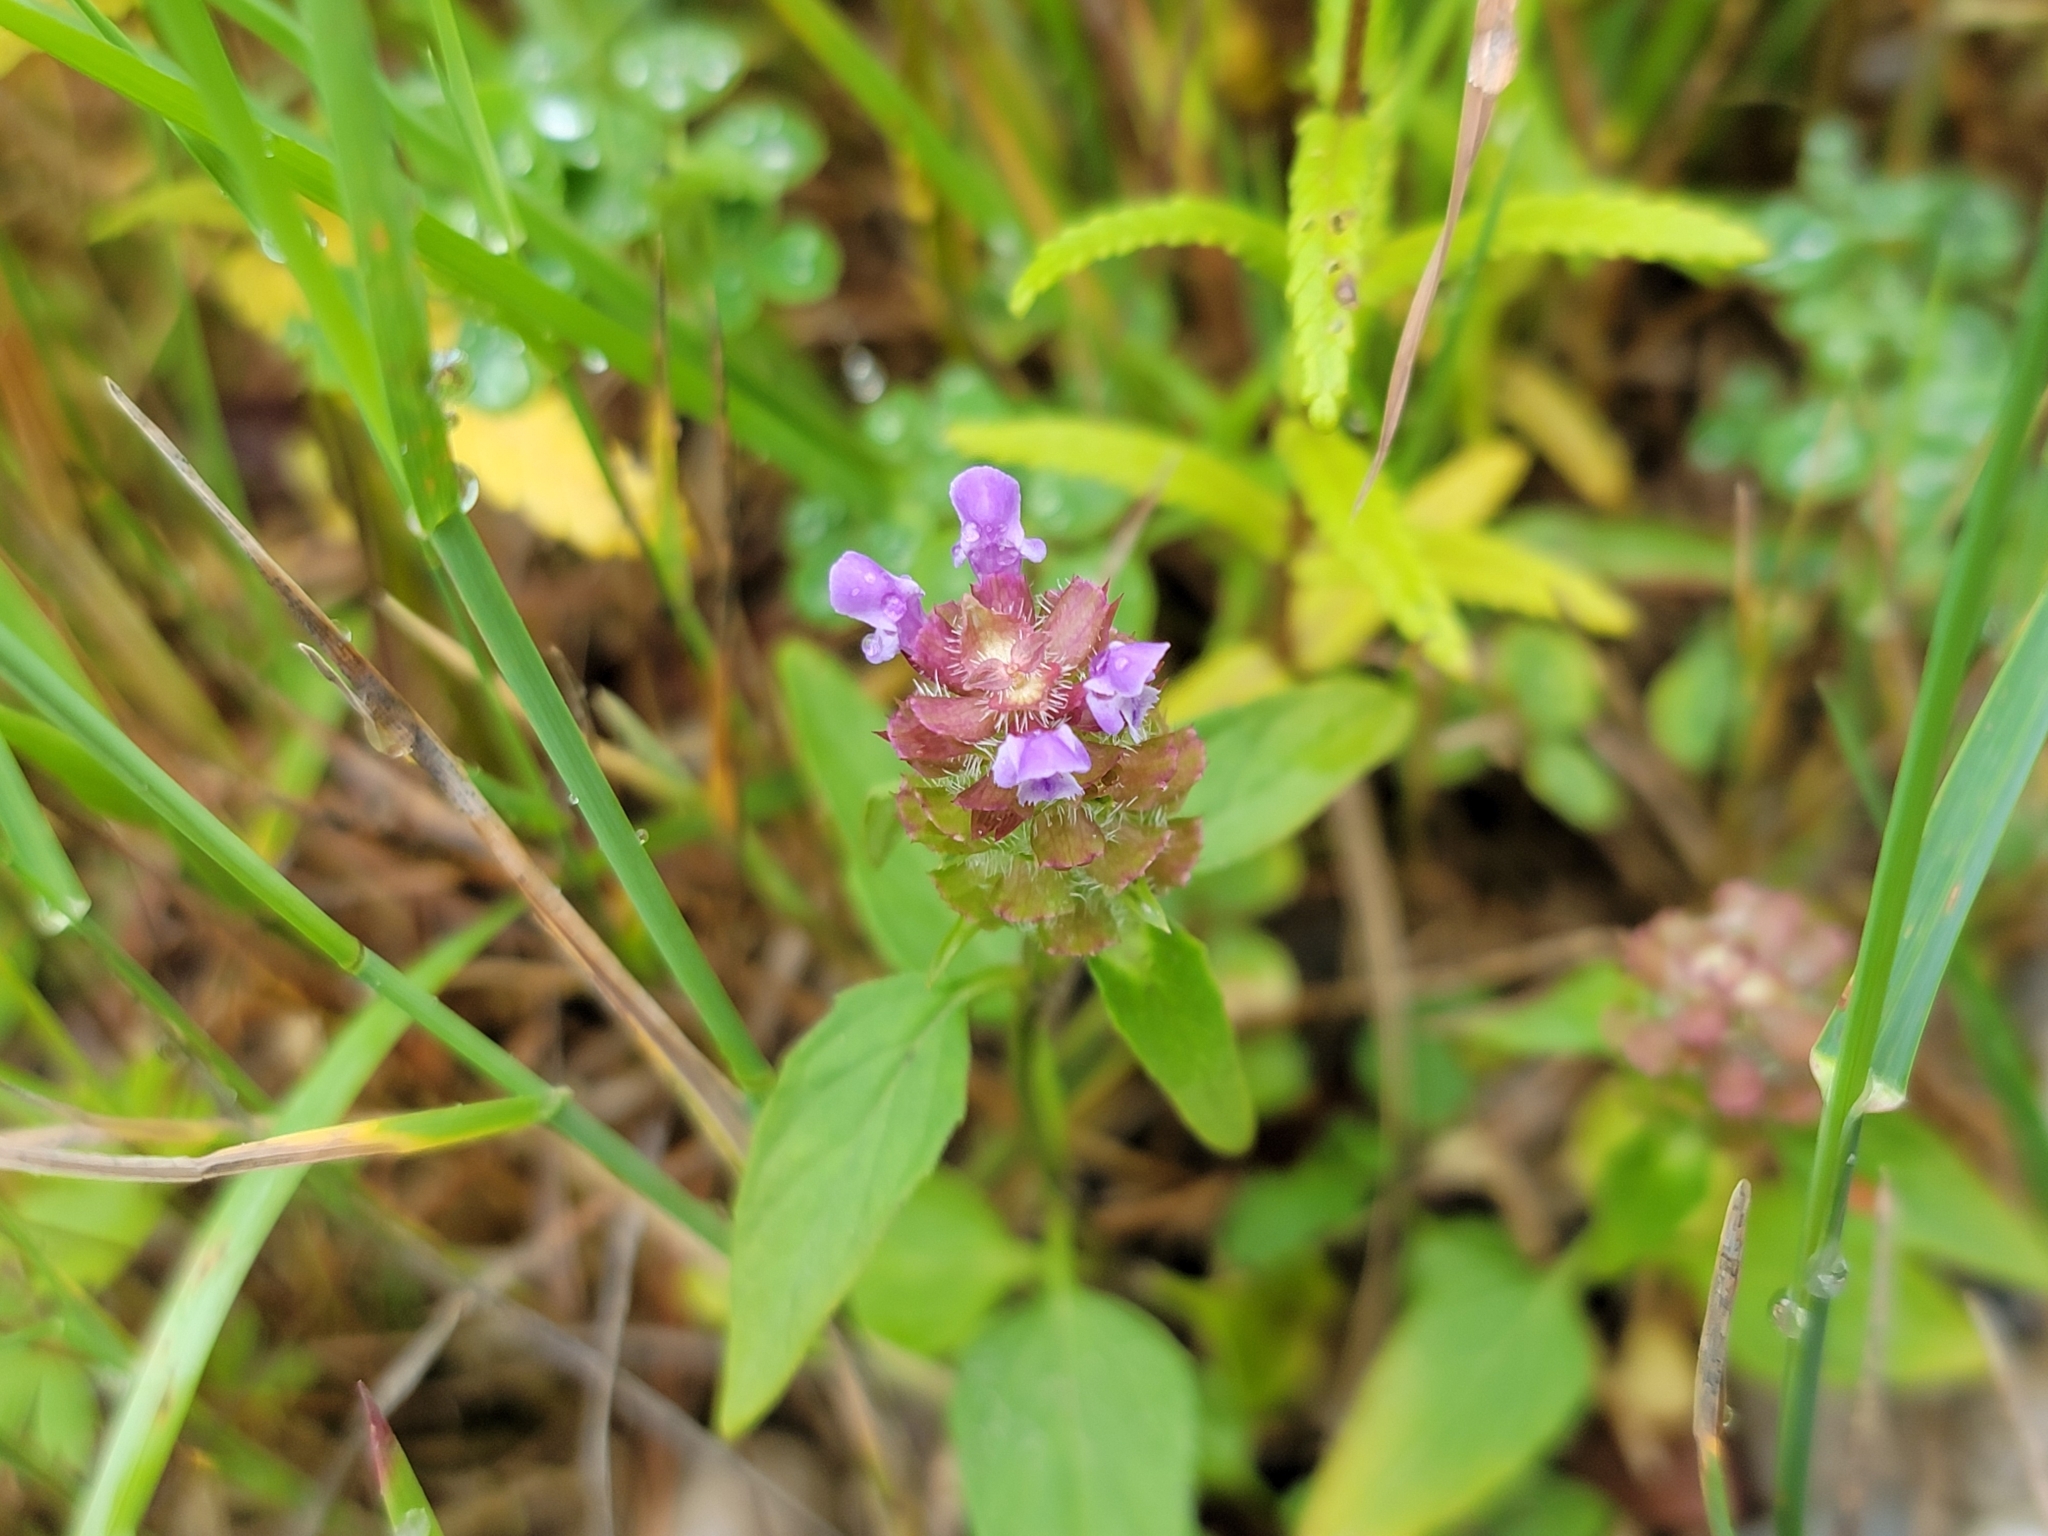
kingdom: Plantae
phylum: Tracheophyta
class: Magnoliopsida
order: Lamiales
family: Lamiaceae
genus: Prunella
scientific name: Prunella vulgaris
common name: Heal-all
